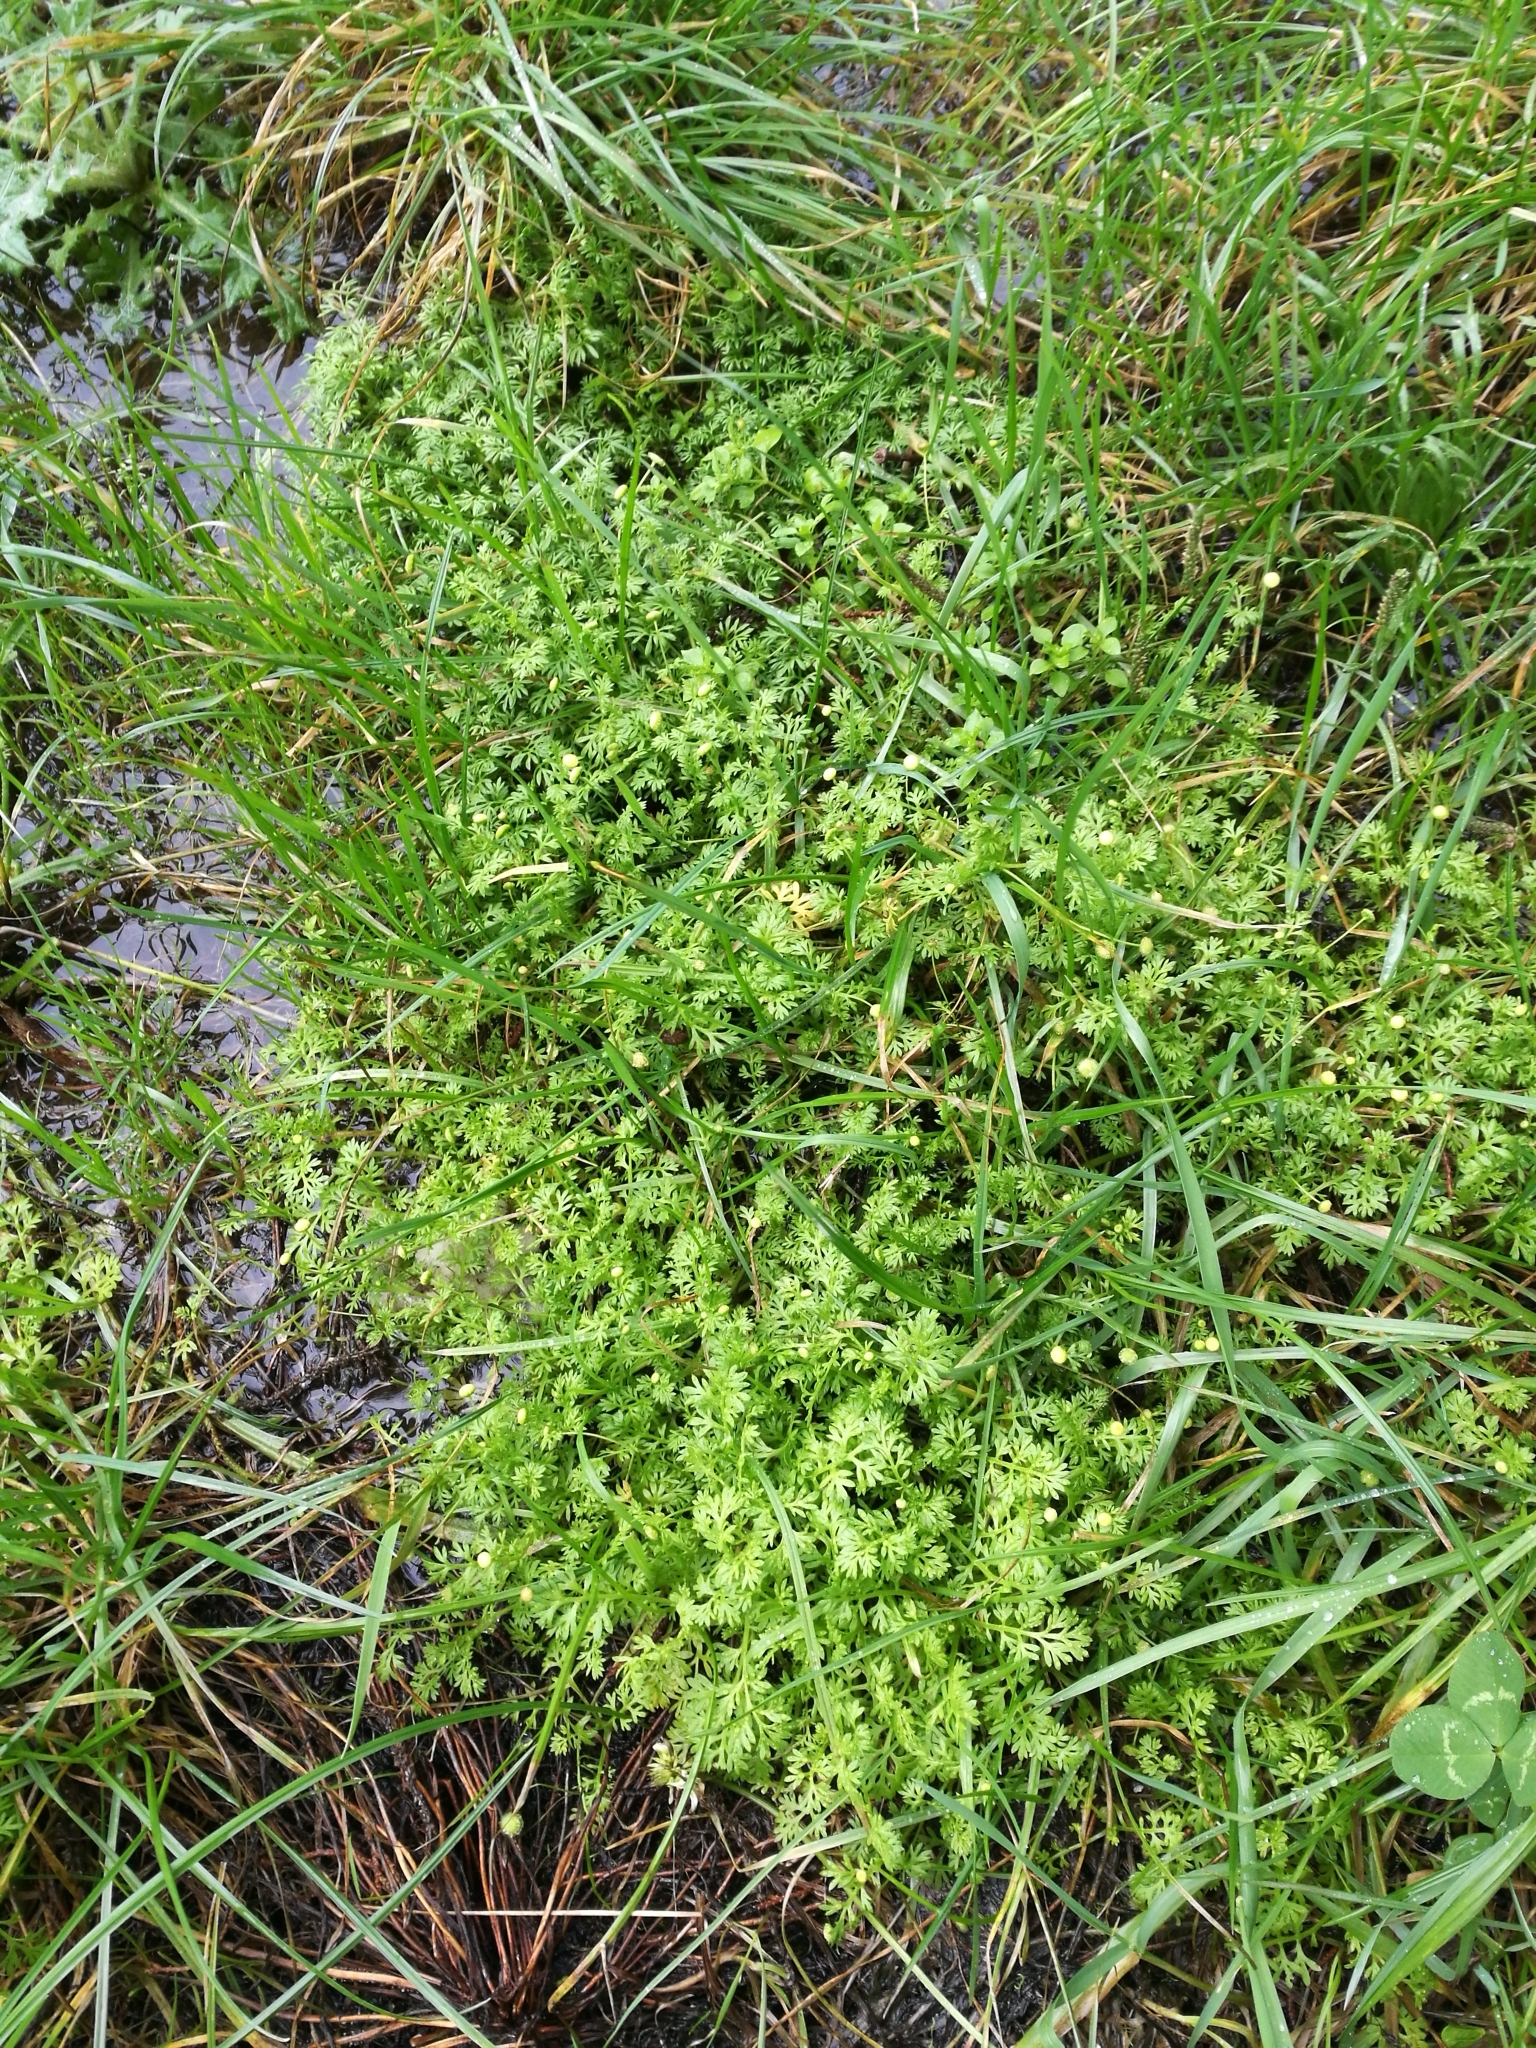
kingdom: Plantae
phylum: Tracheophyta
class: Magnoliopsida
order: Asterales
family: Asteraceae
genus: Cotula
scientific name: Cotula australis
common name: Australian waterbuttons
